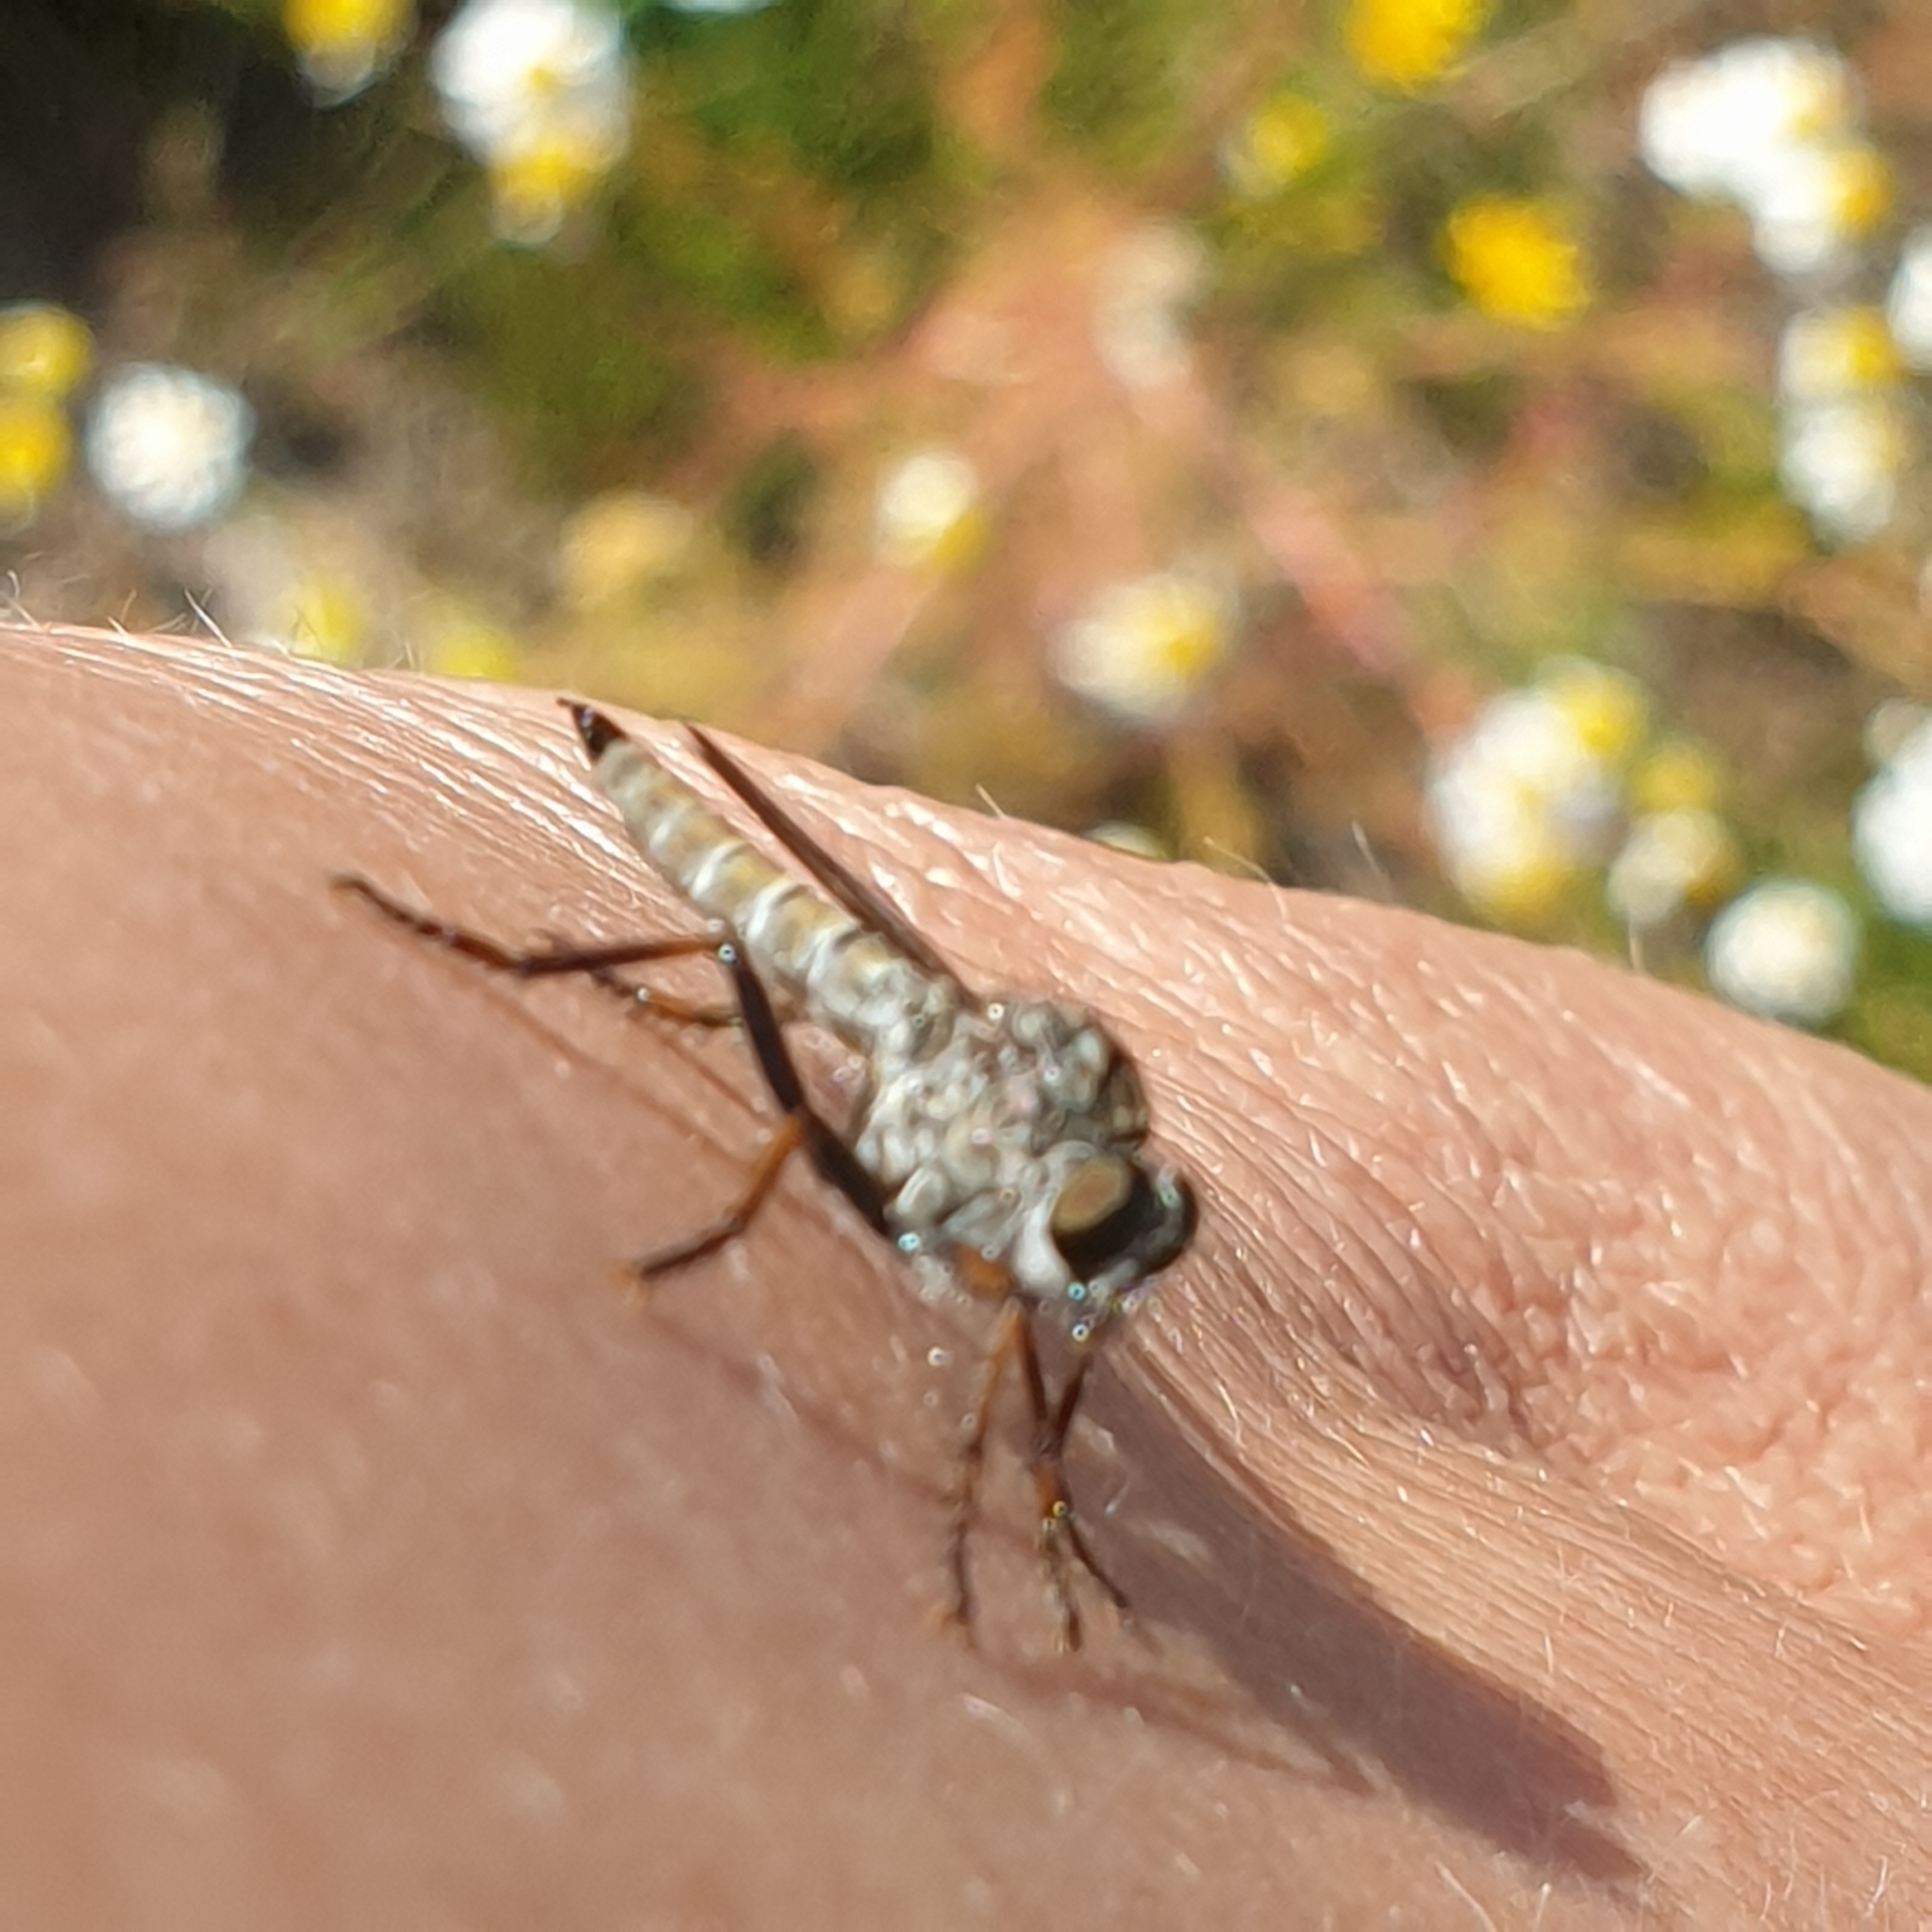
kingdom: Animalia
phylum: Arthropoda
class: Insecta
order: Diptera
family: Asilidae
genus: Machimus
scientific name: Machimus atricapillus
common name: Kite-tailed robberfly
